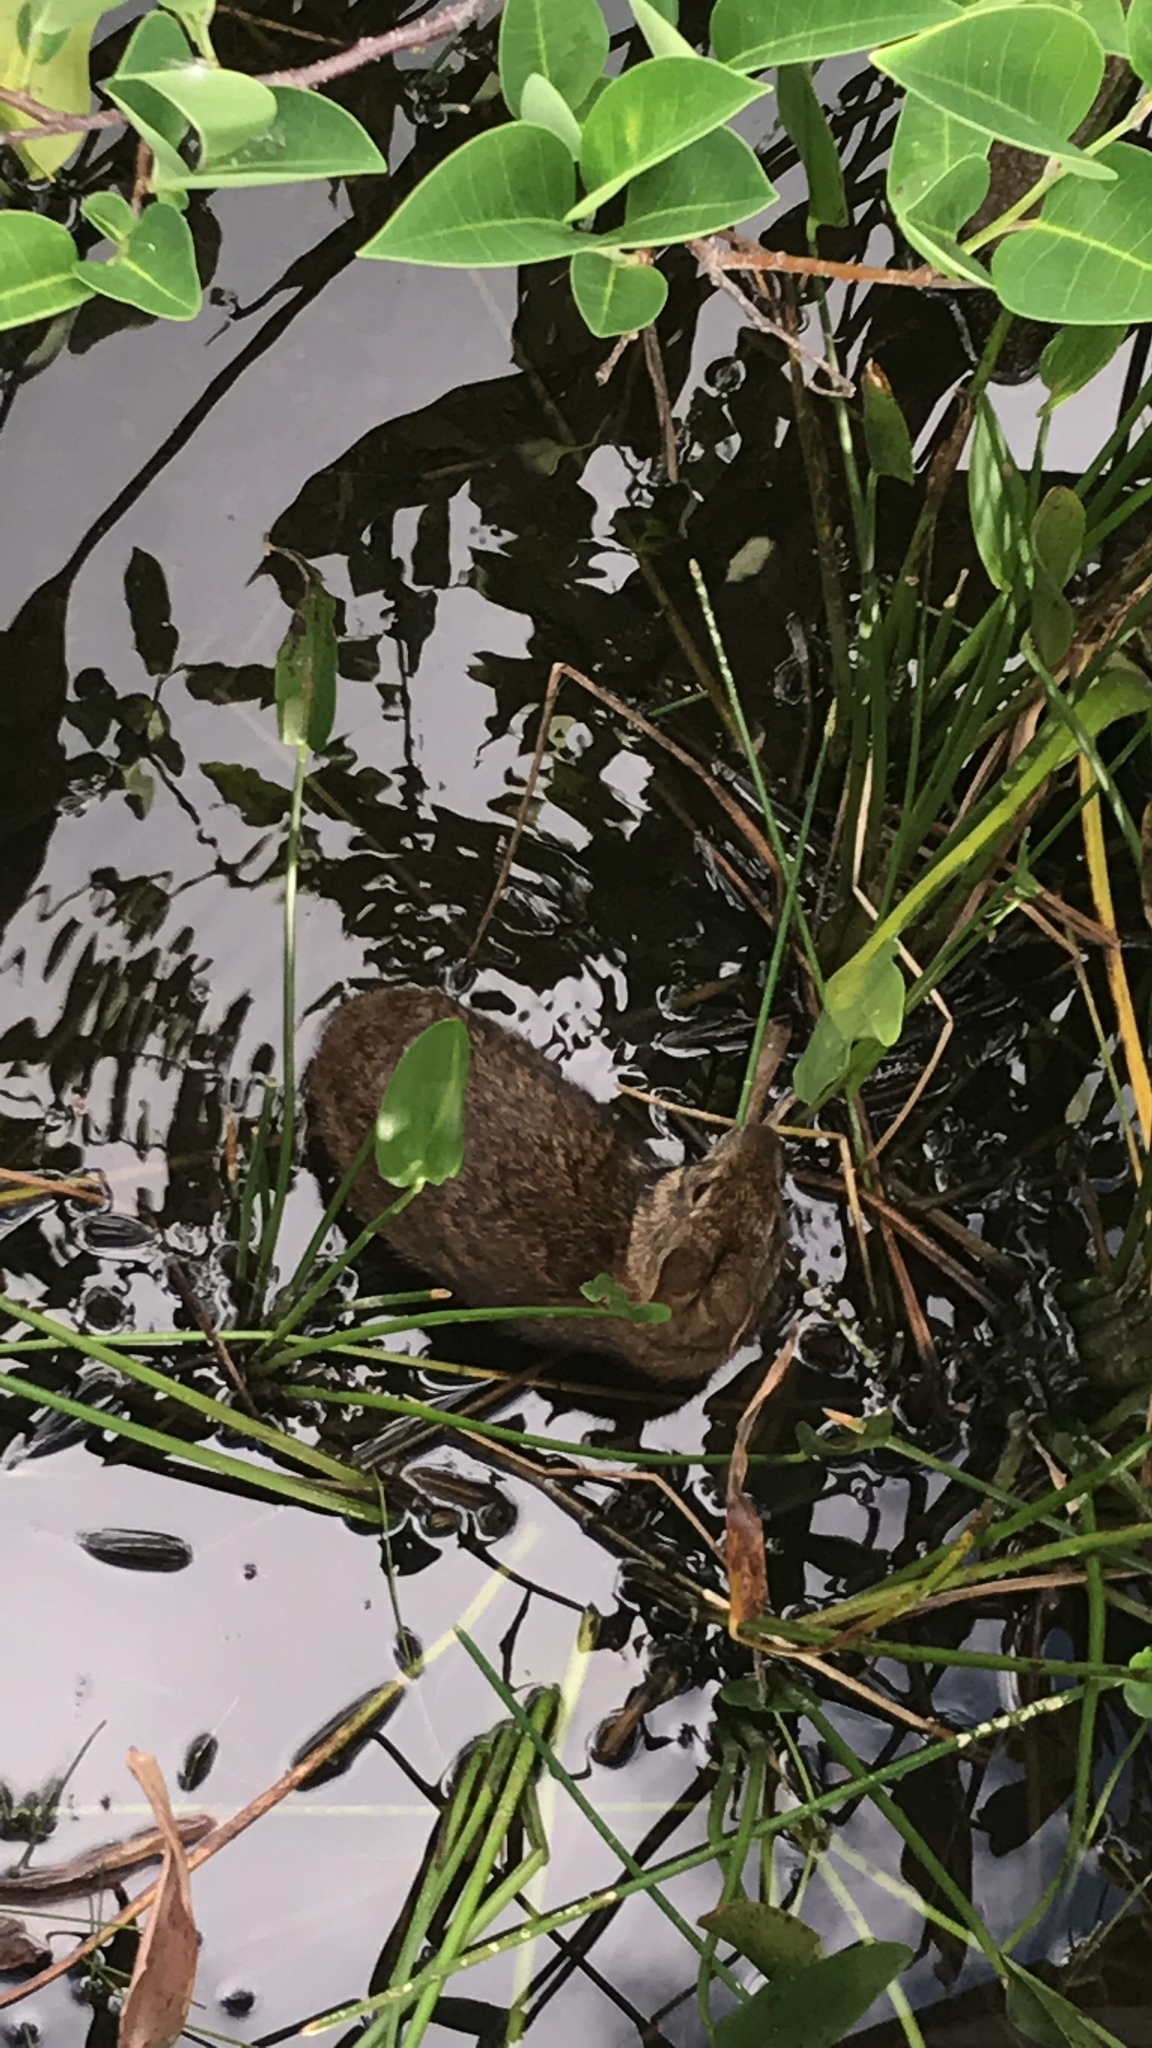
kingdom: Animalia
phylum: Chordata
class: Mammalia
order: Lagomorpha
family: Leporidae
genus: Sylvilagus
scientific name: Sylvilagus palustris
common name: Marsh rabbit
